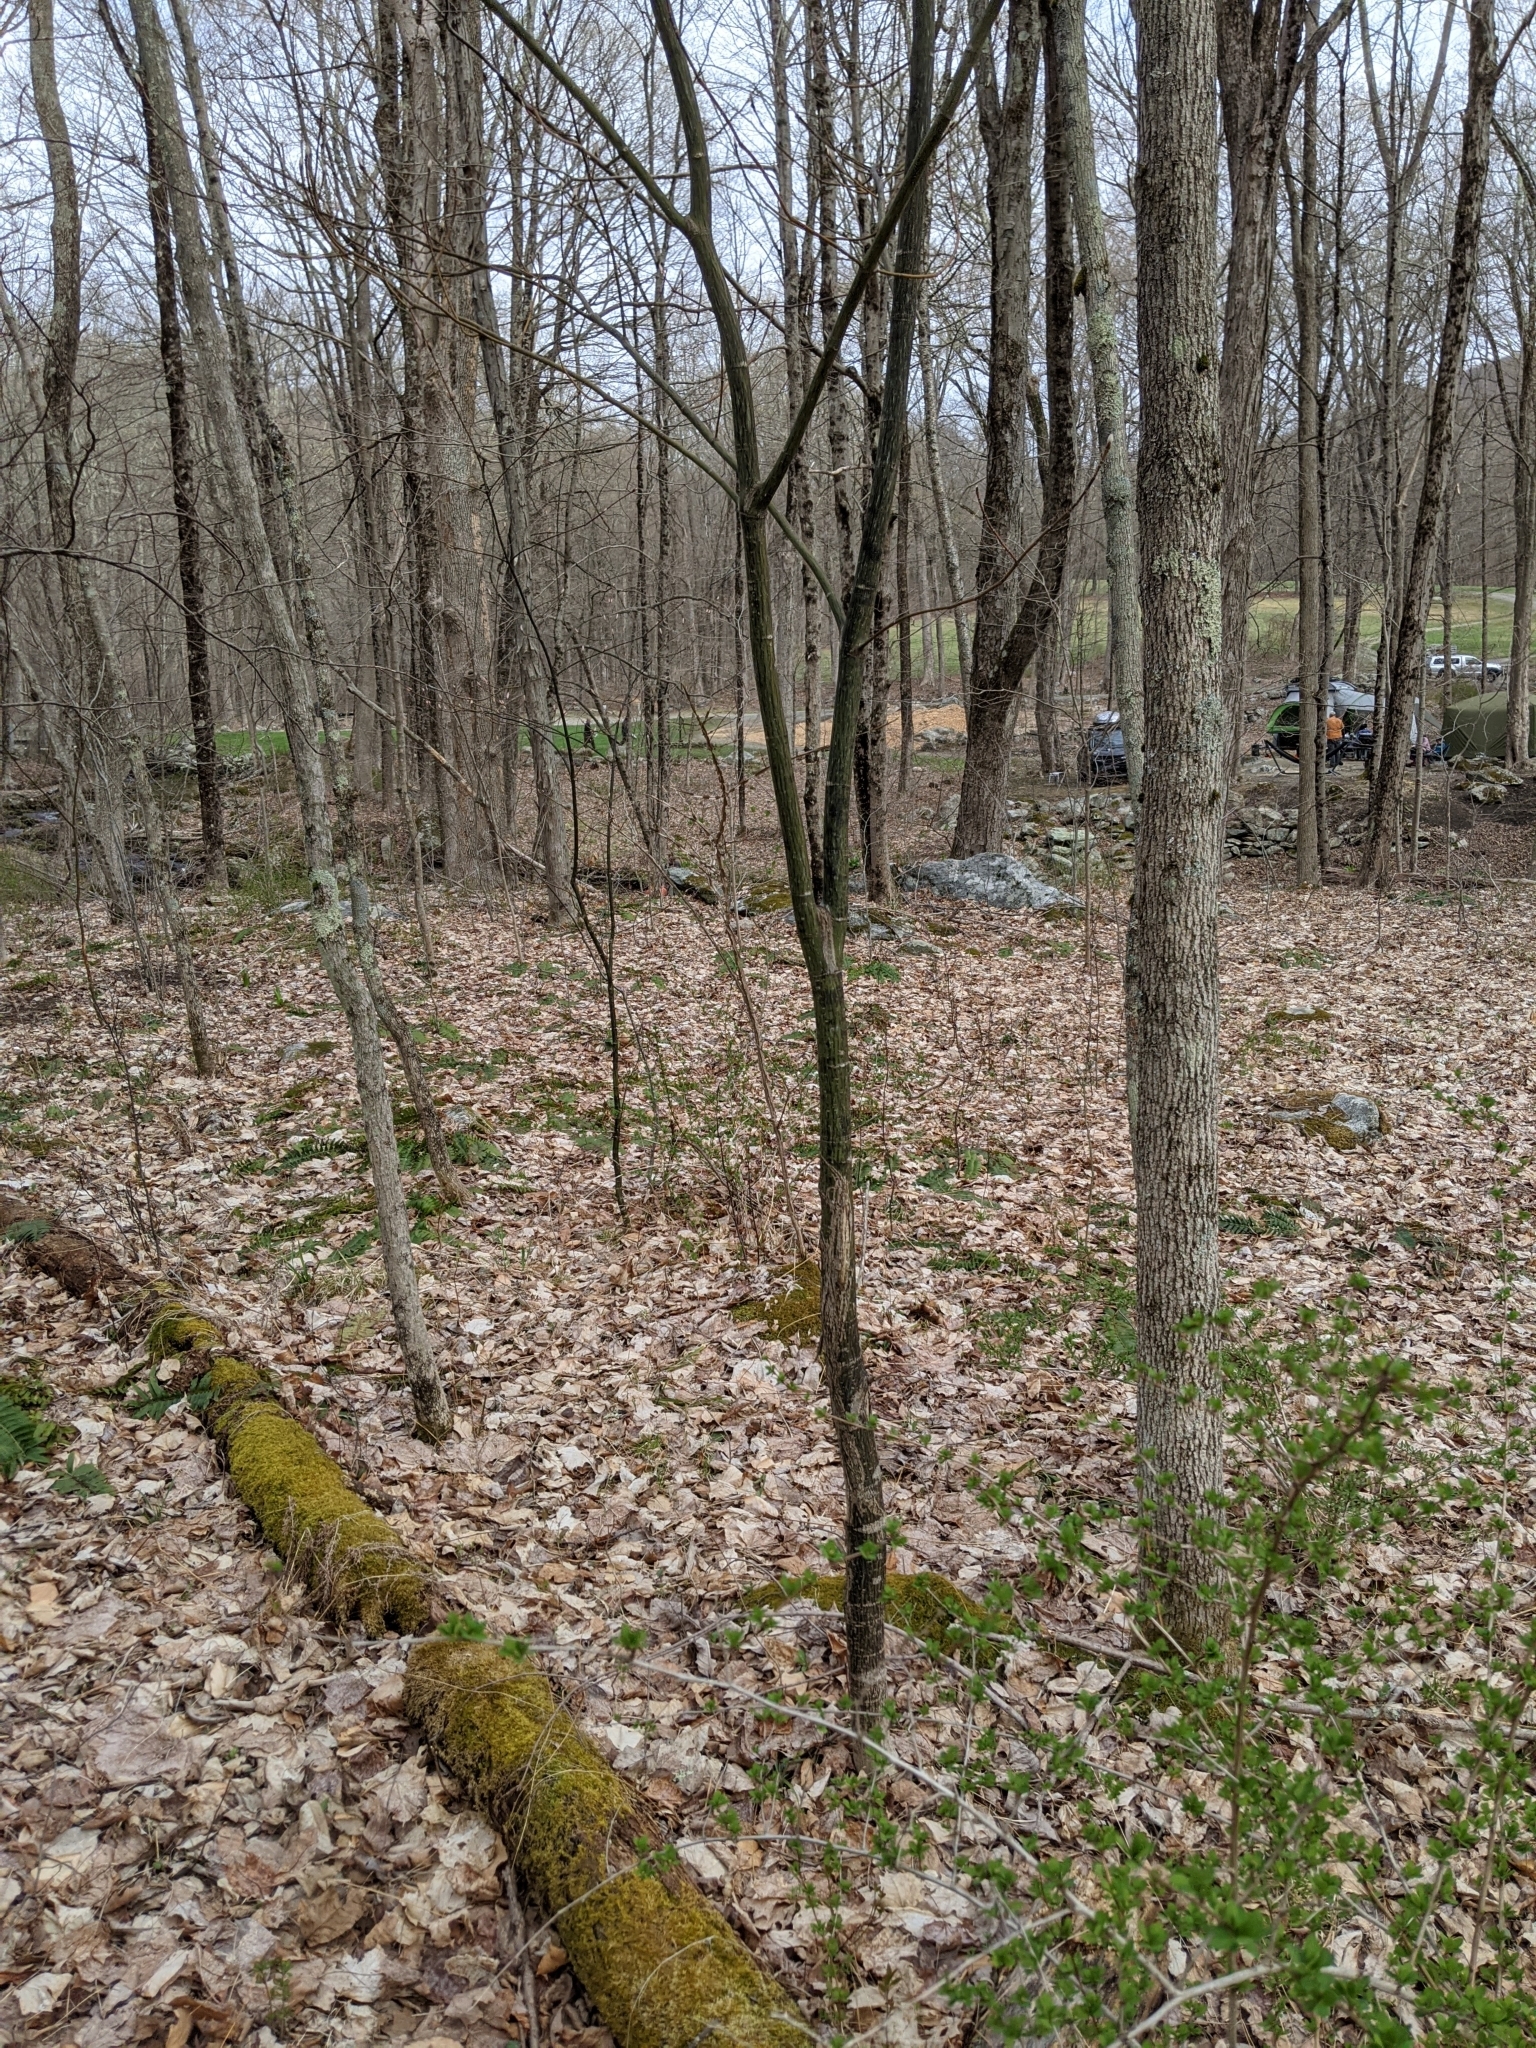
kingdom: Plantae
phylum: Tracheophyta
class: Magnoliopsida
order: Sapindales
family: Sapindaceae
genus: Acer
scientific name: Acer pensylvanicum
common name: Moosewood
